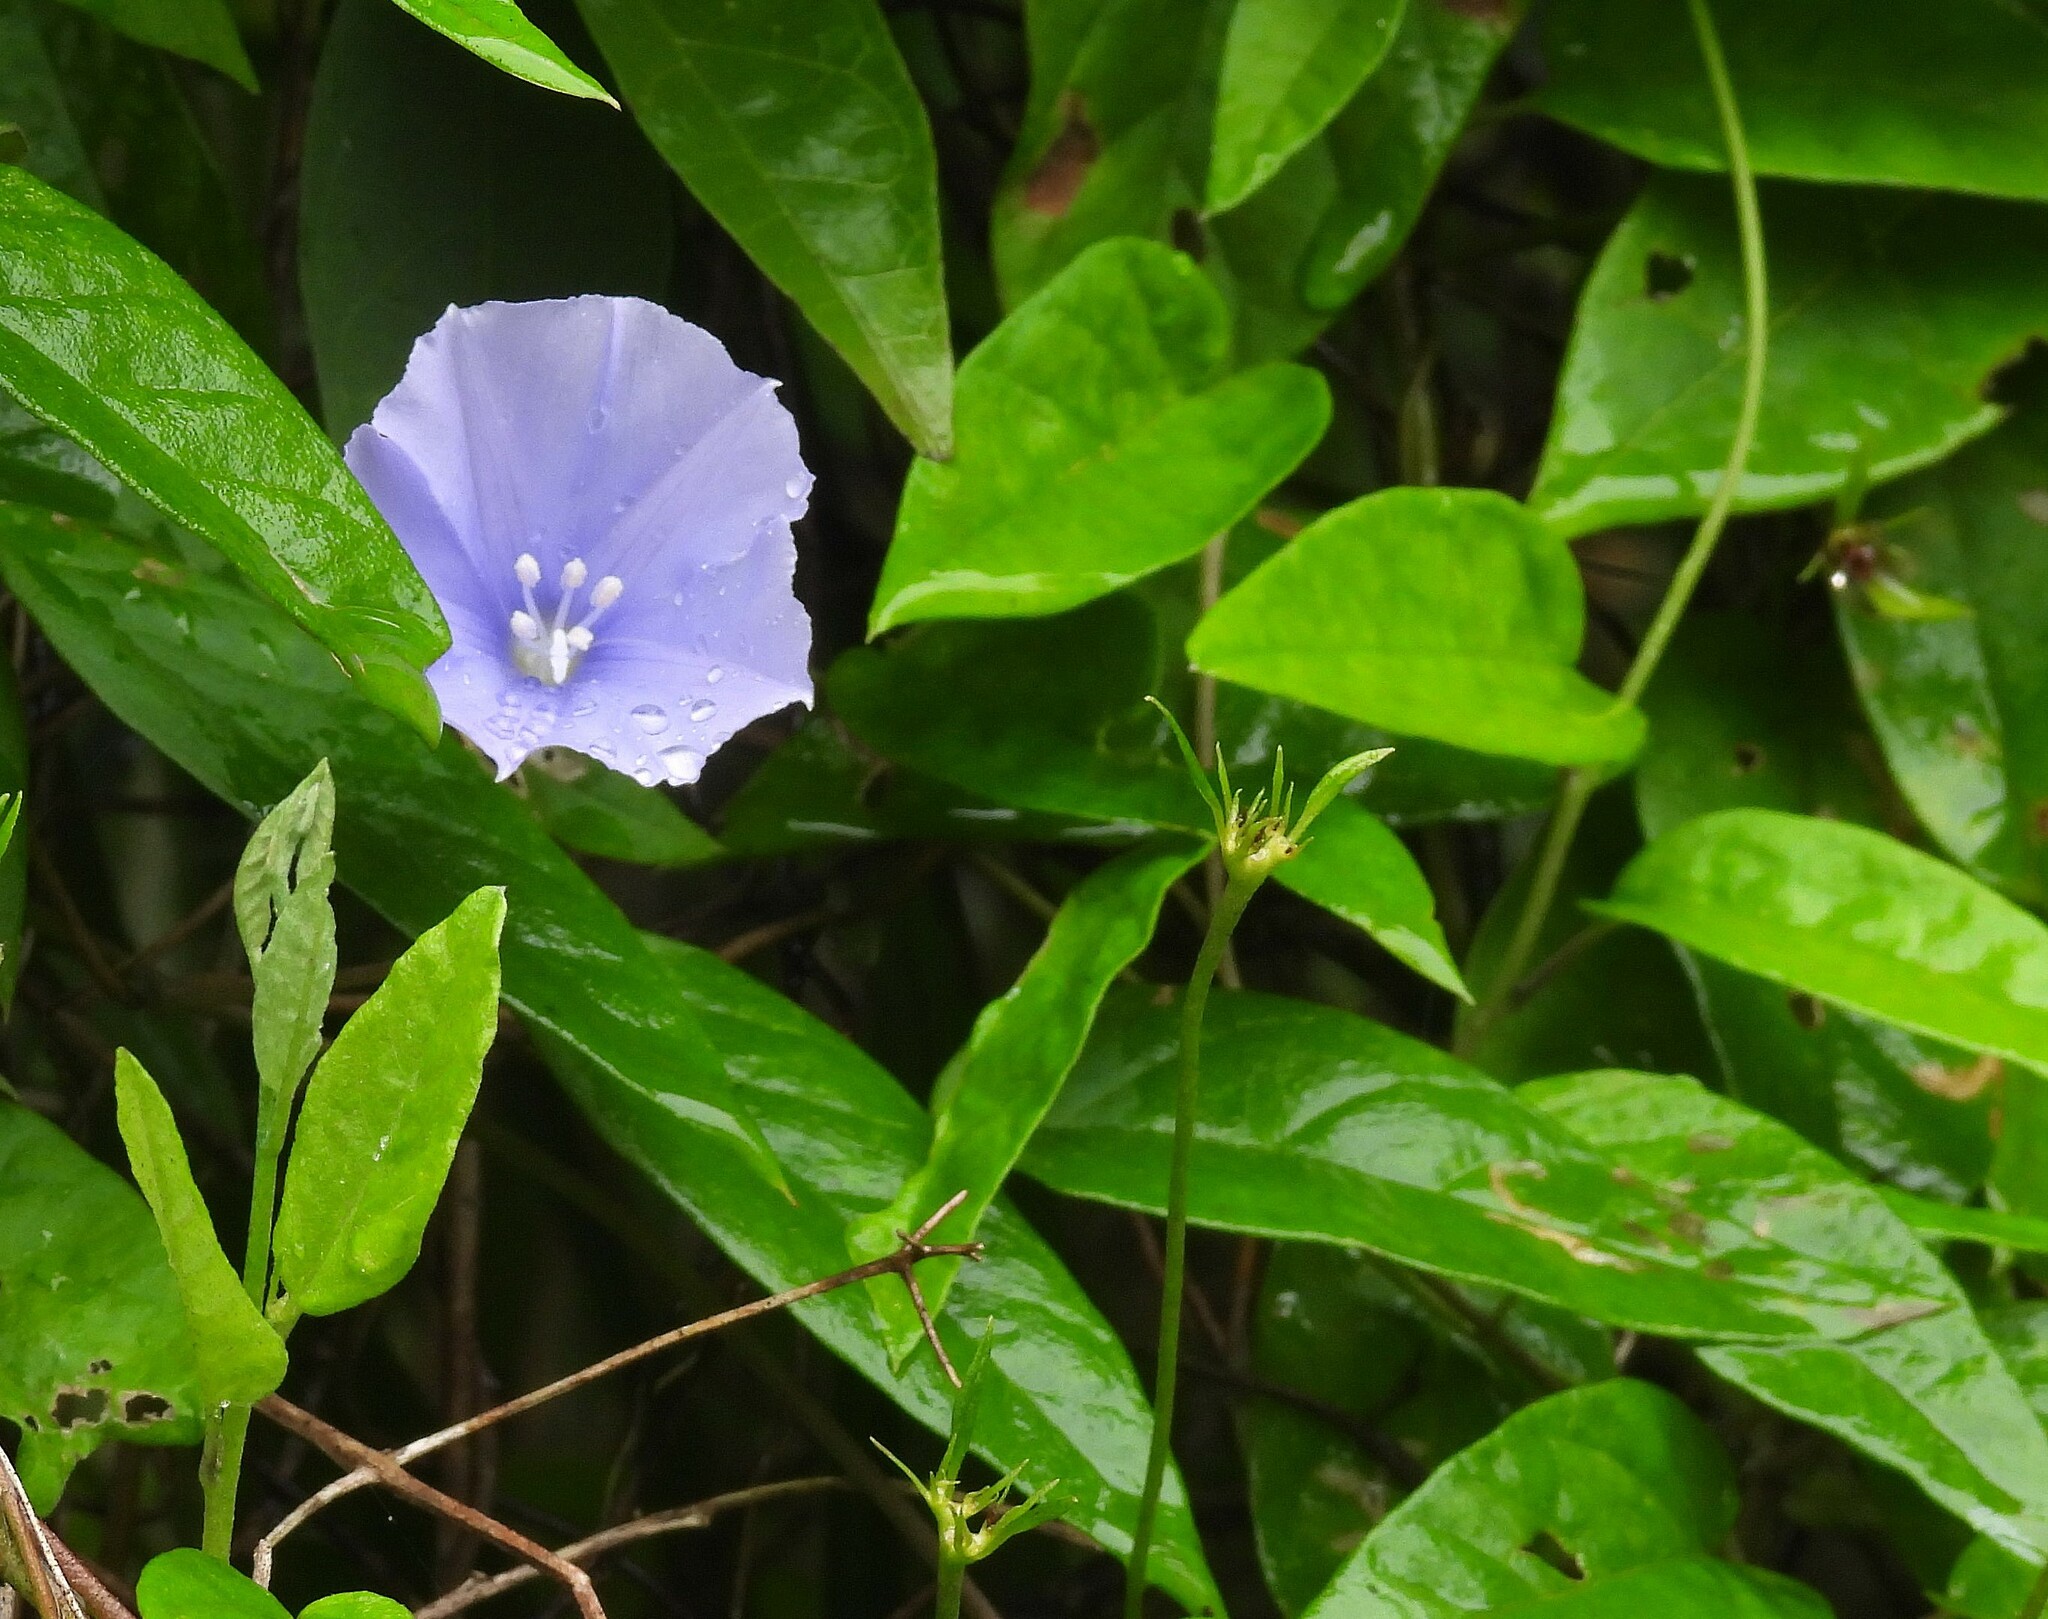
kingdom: Plantae
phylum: Tracheophyta
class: Magnoliopsida
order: Solanales
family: Convolvulaceae
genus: Jacquemontia
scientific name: Jacquemontia blanchetii
